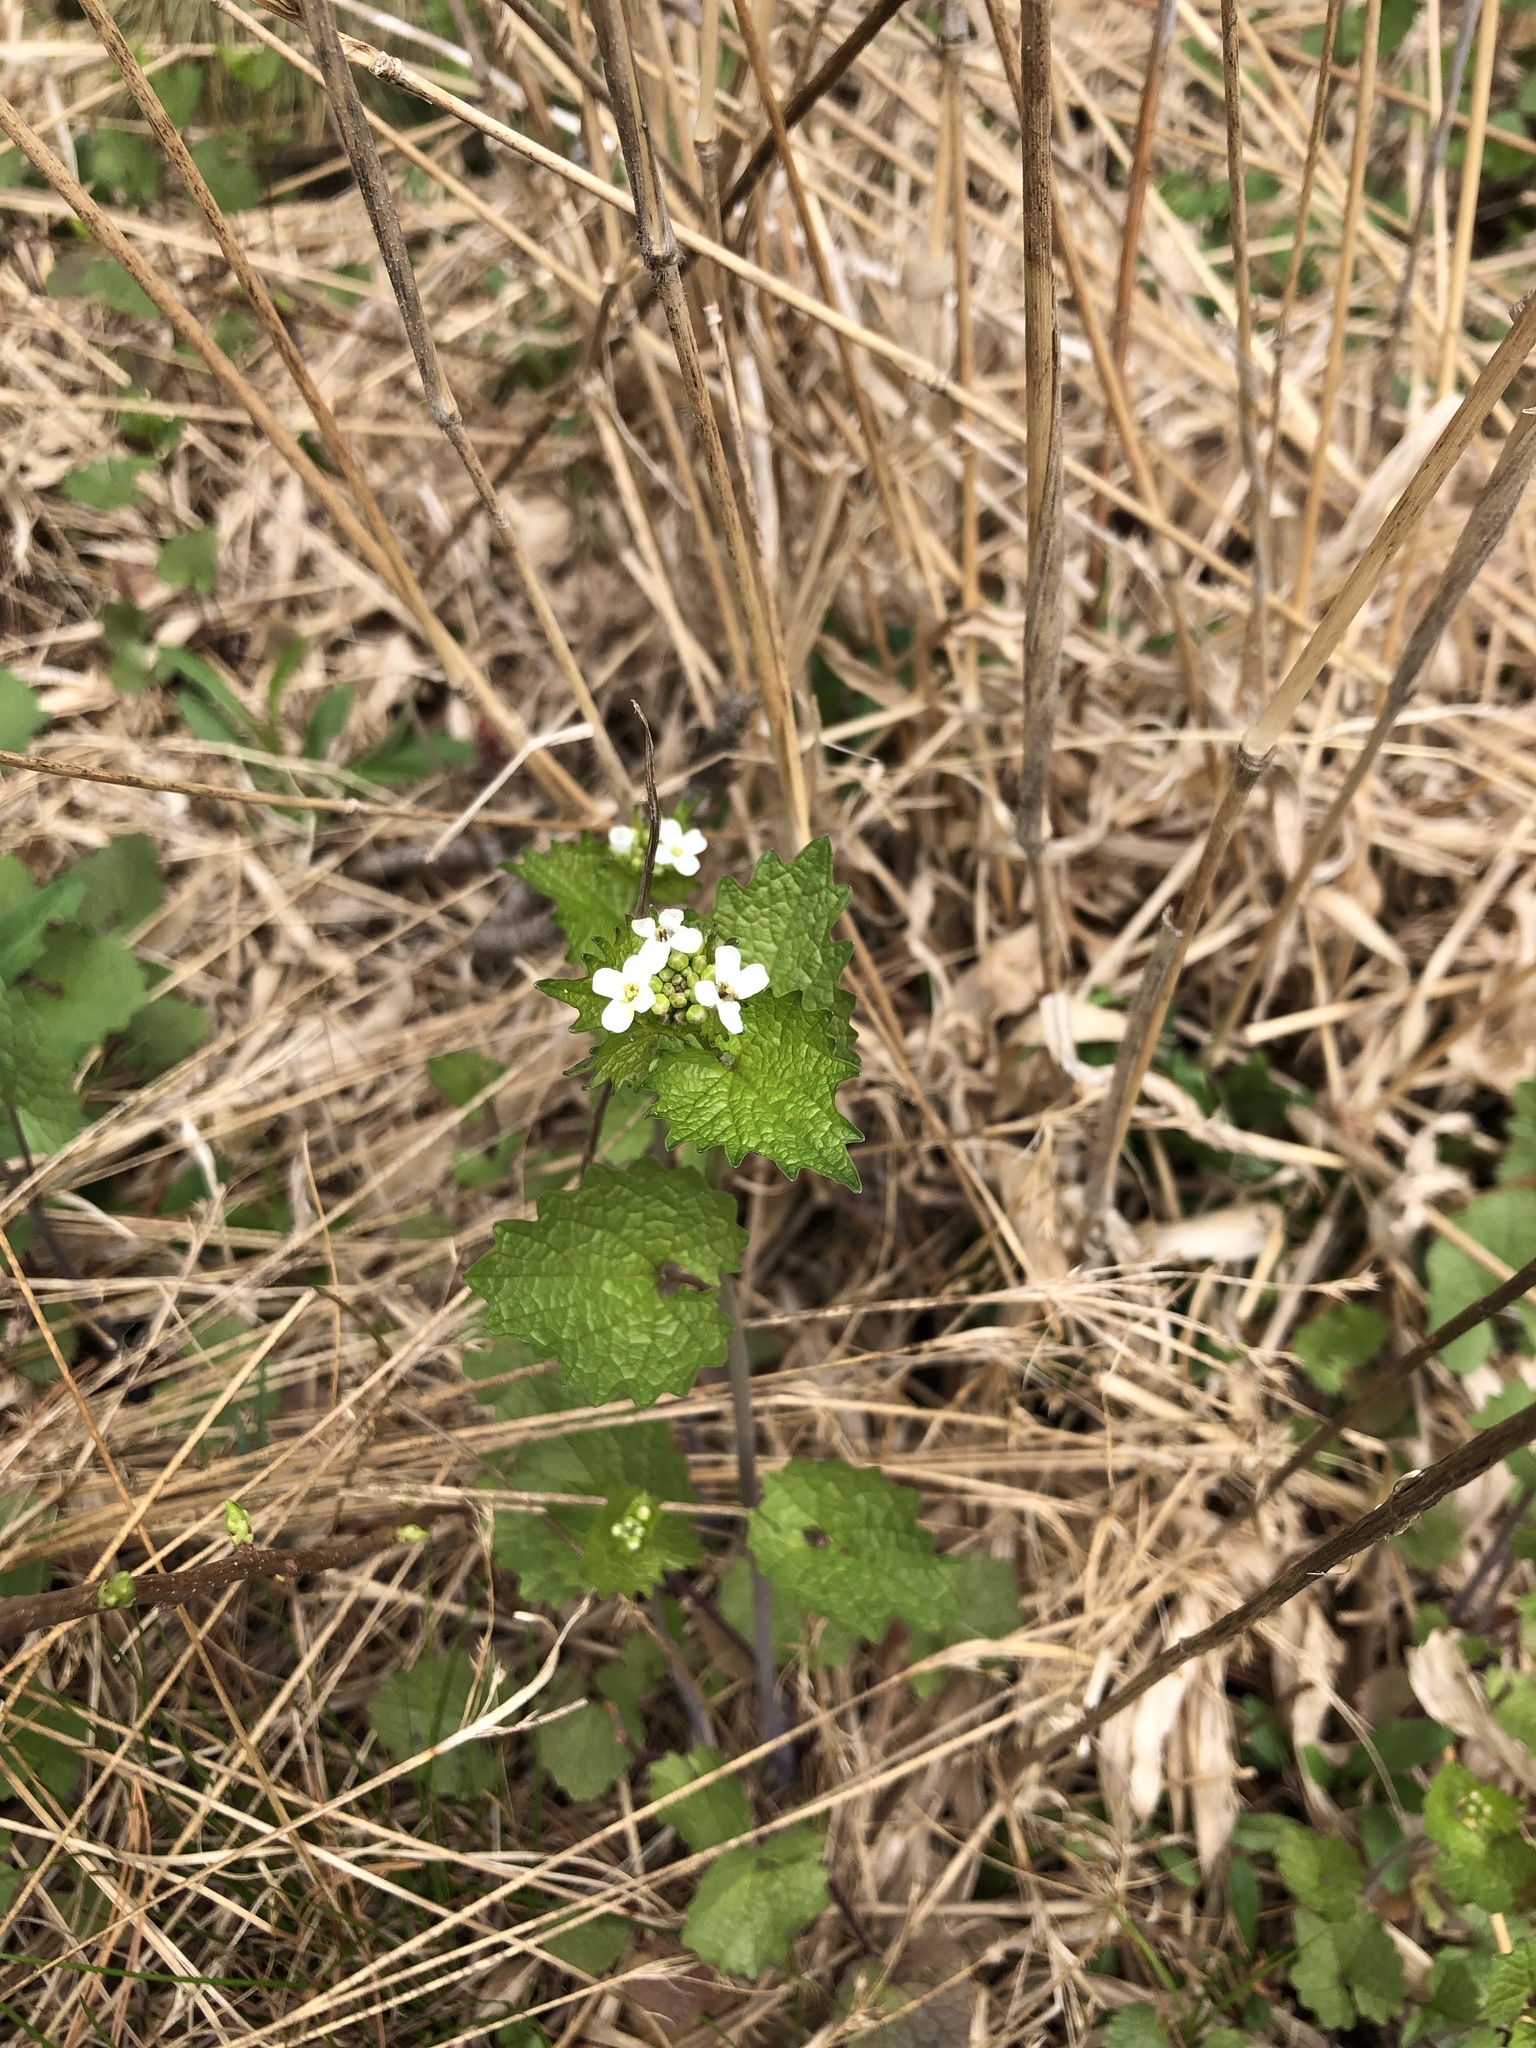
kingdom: Plantae
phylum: Tracheophyta
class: Magnoliopsida
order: Brassicales
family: Brassicaceae
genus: Alliaria
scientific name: Alliaria petiolata
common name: Garlic mustard
